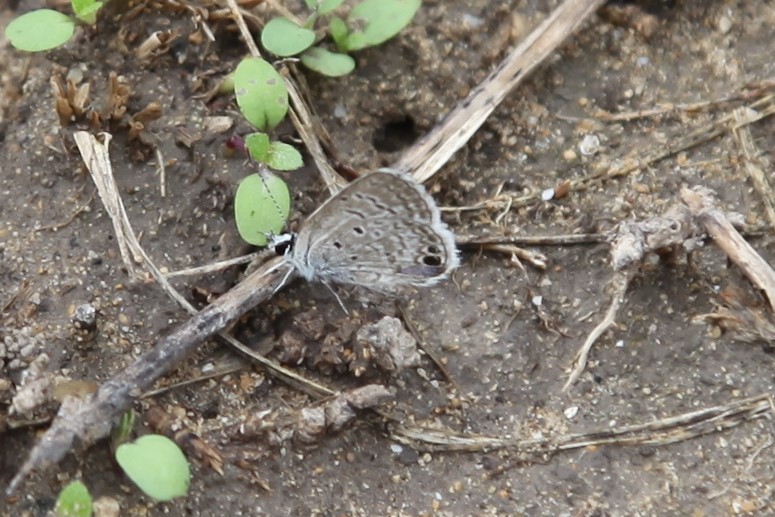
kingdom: Animalia
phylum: Arthropoda
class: Insecta
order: Lepidoptera
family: Lycaenidae
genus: Hemiargus
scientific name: Hemiargus ceraunus
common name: Ceraunus blue
